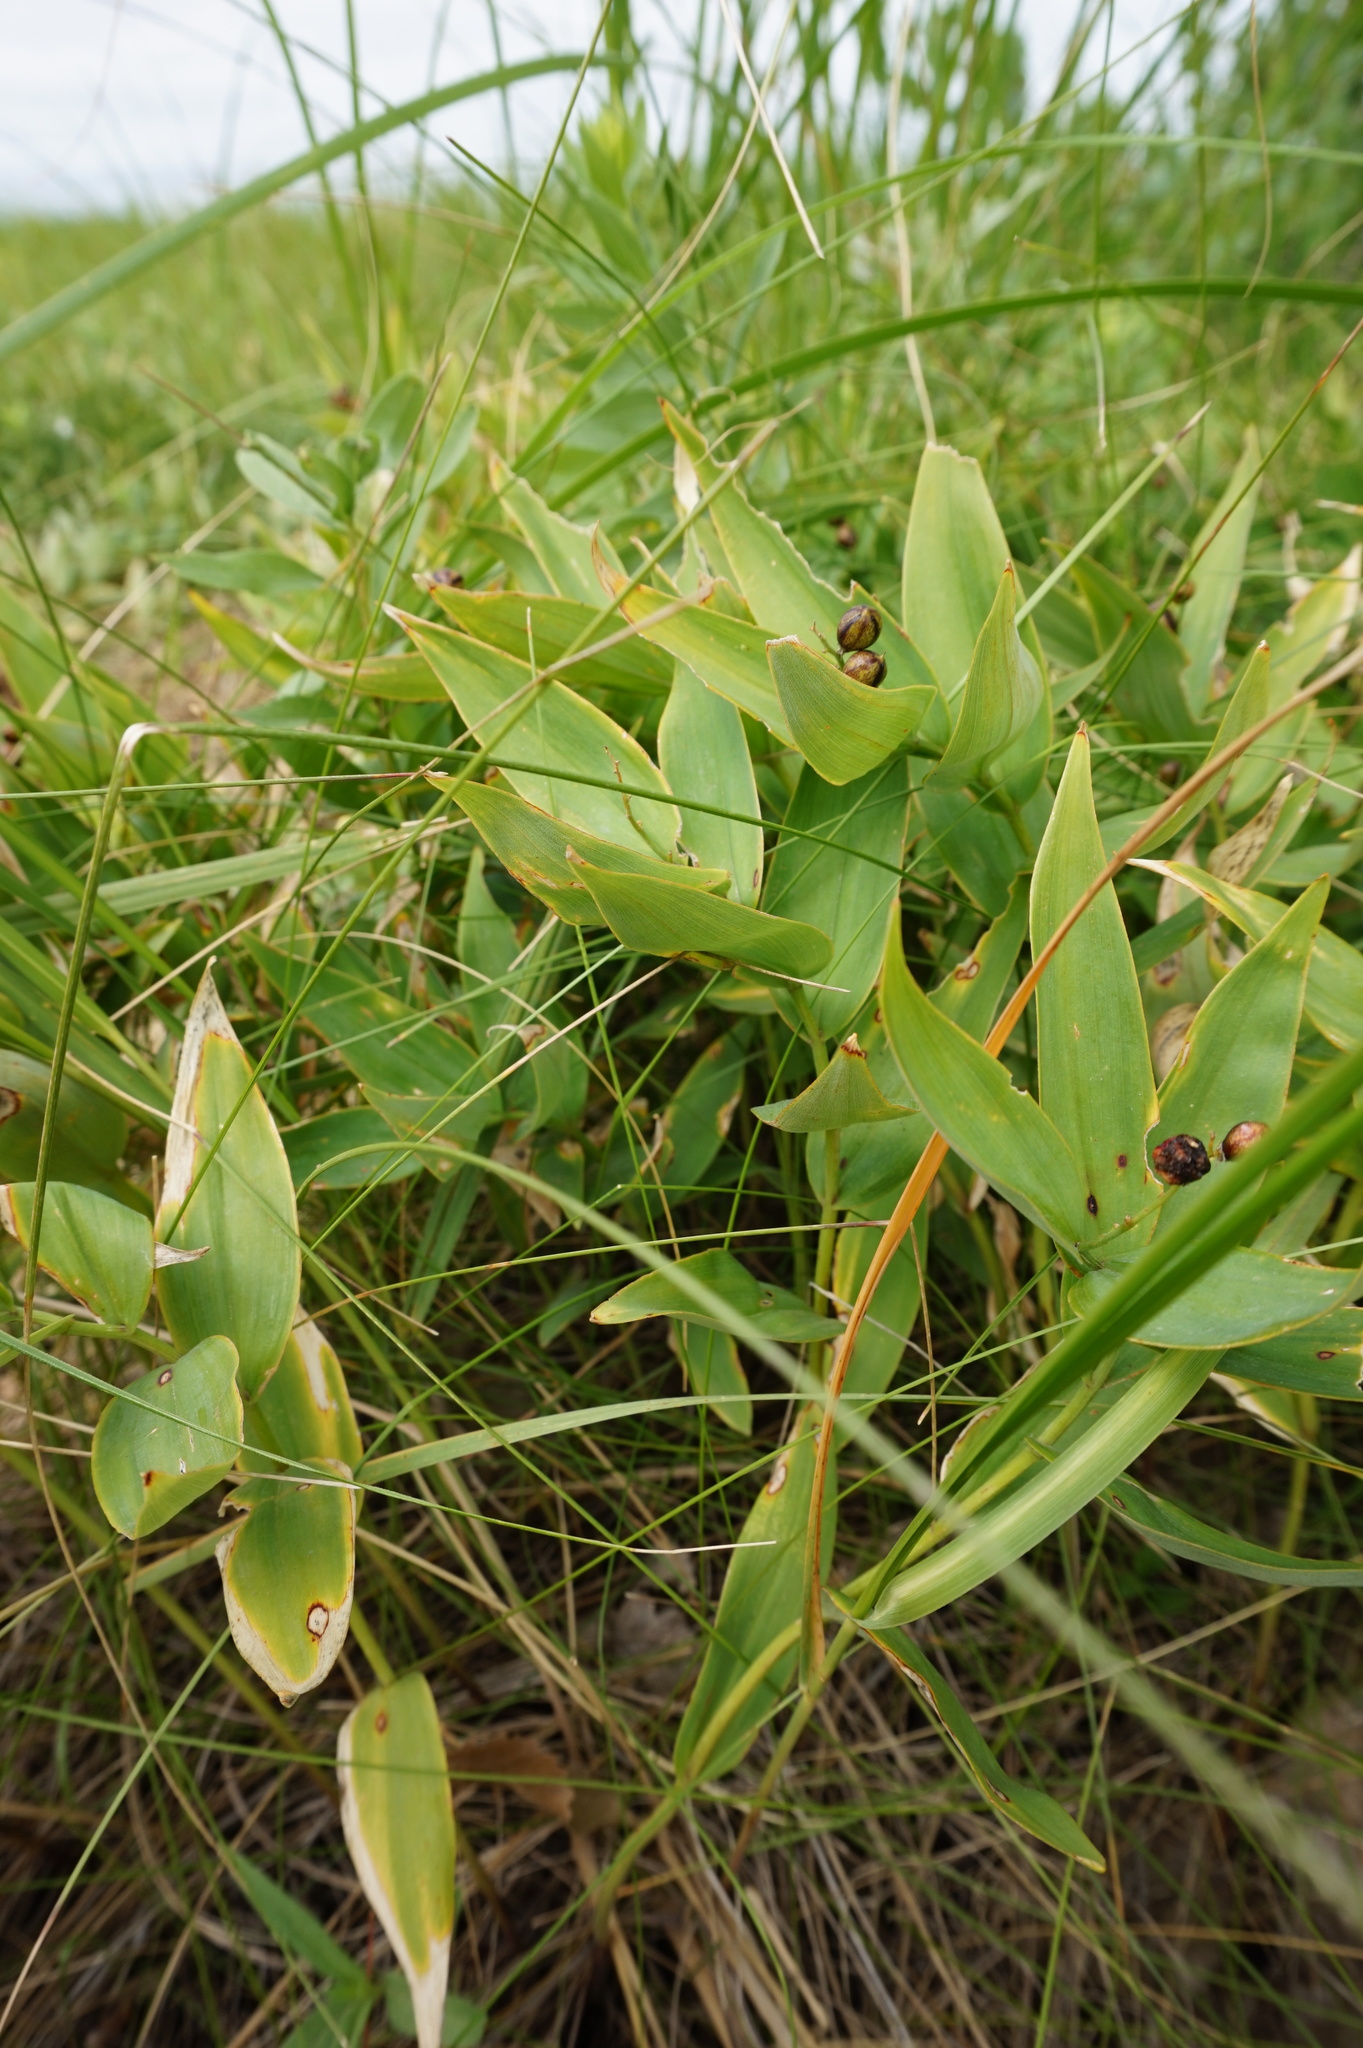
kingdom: Plantae
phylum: Tracheophyta
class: Liliopsida
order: Asparagales
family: Asparagaceae
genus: Maianthemum
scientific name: Maianthemum stellatum
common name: Little false solomon's seal
